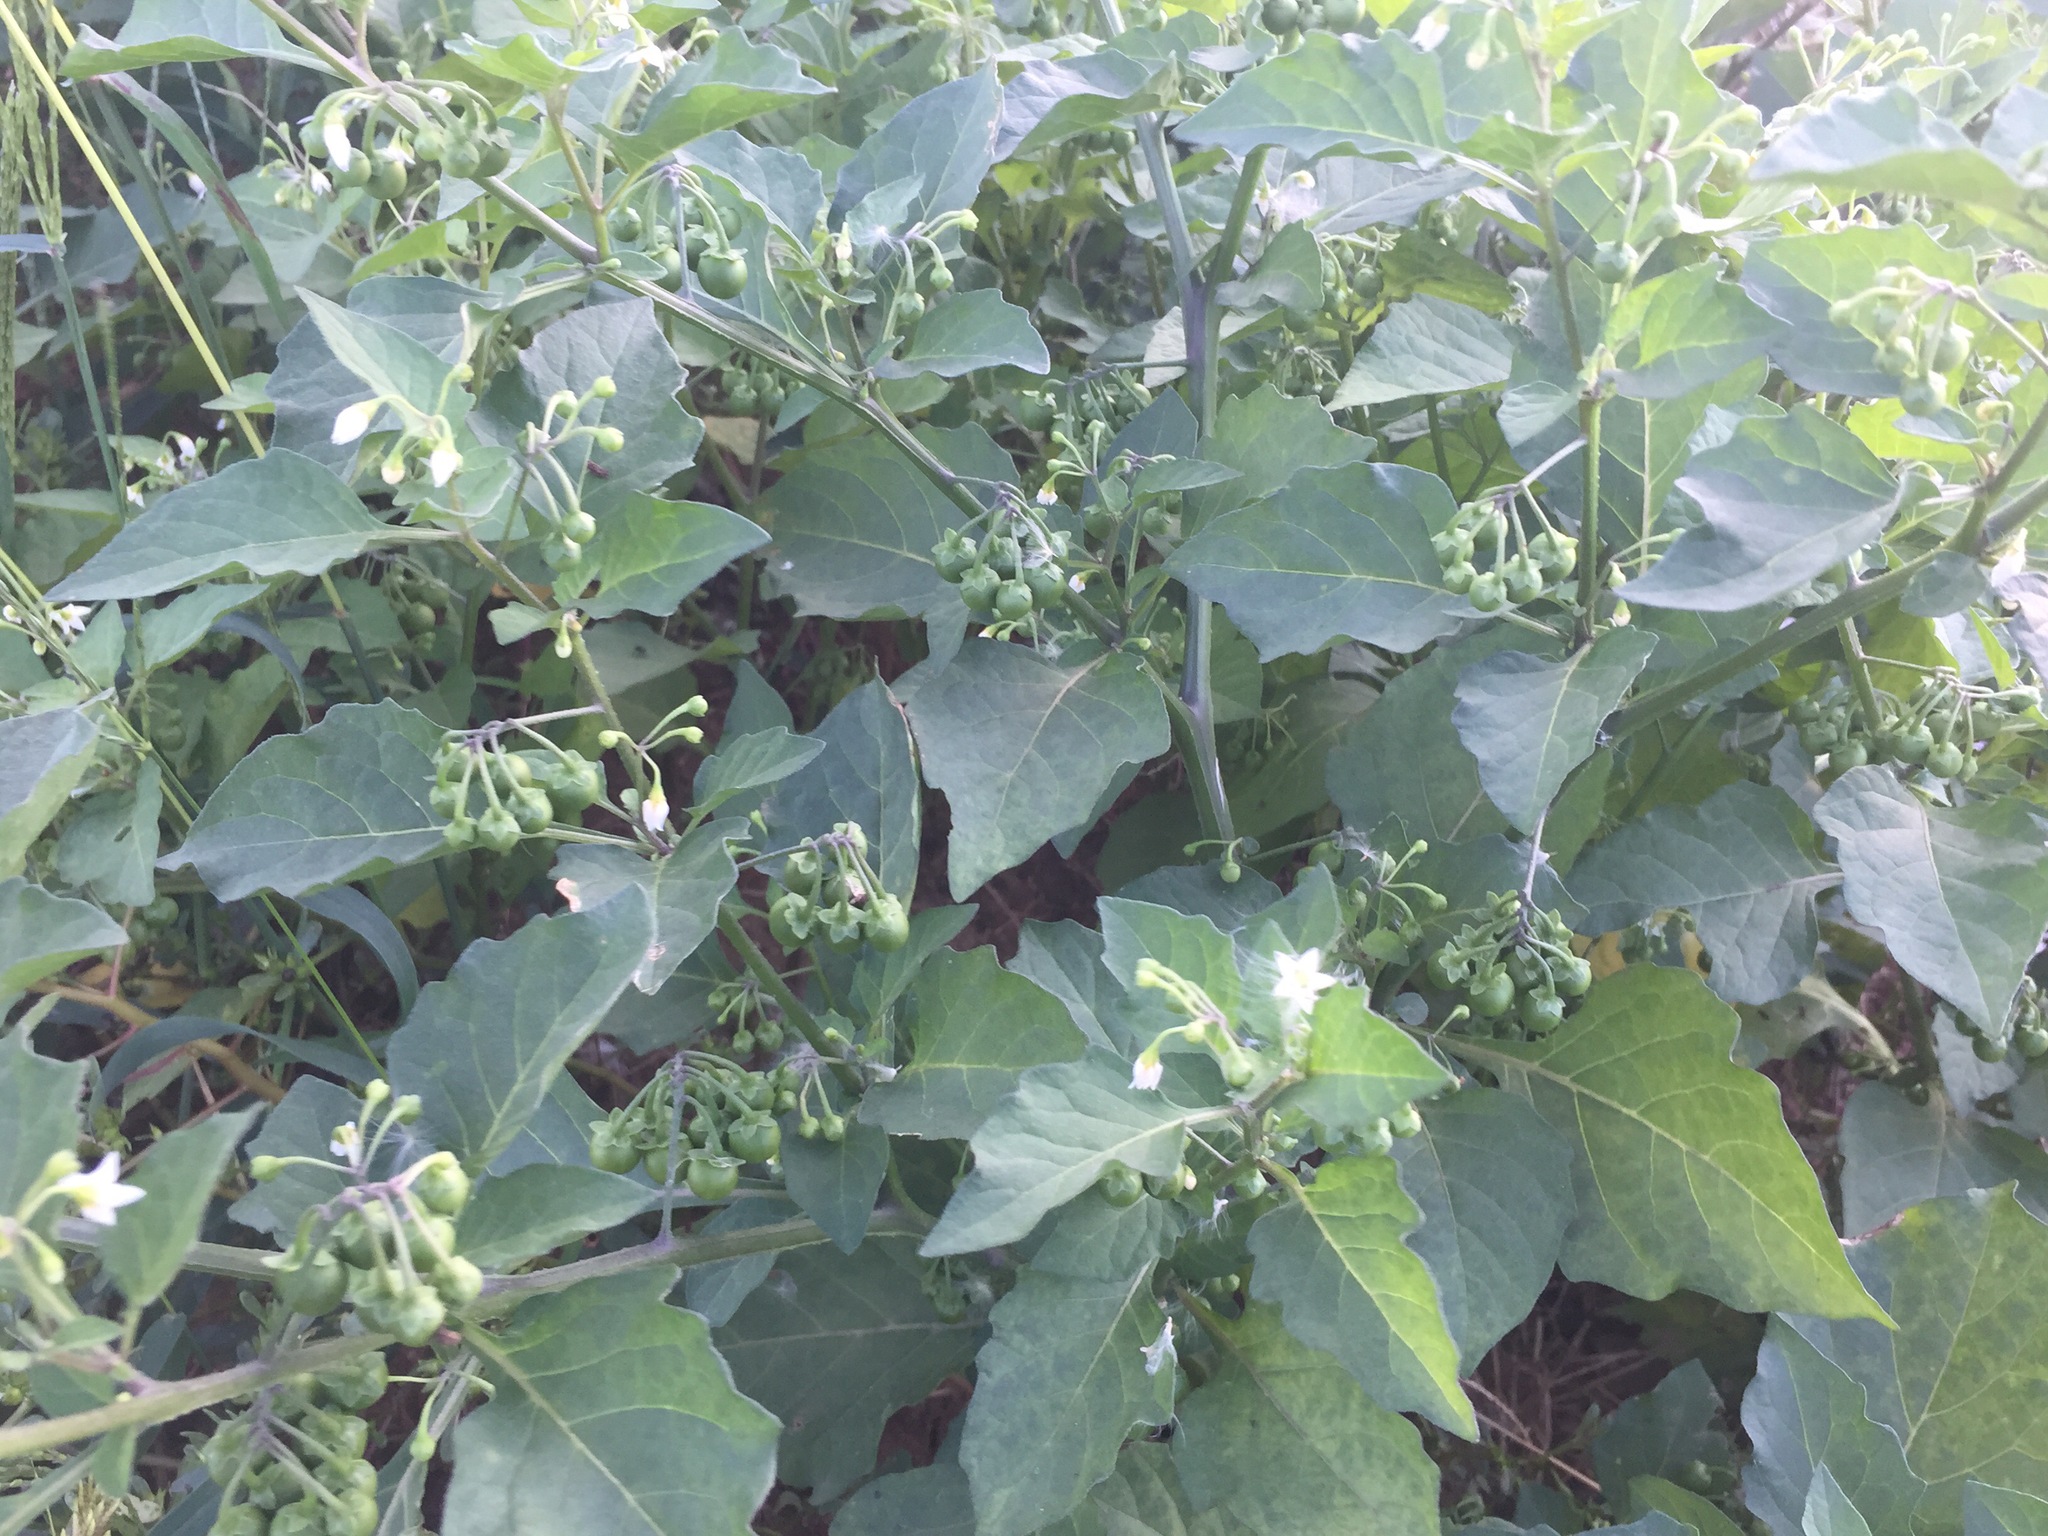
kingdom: Plantae
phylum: Tracheophyta
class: Magnoliopsida
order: Solanales
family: Solanaceae
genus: Solanum
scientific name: Solanum nigrum
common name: Black nightshade
